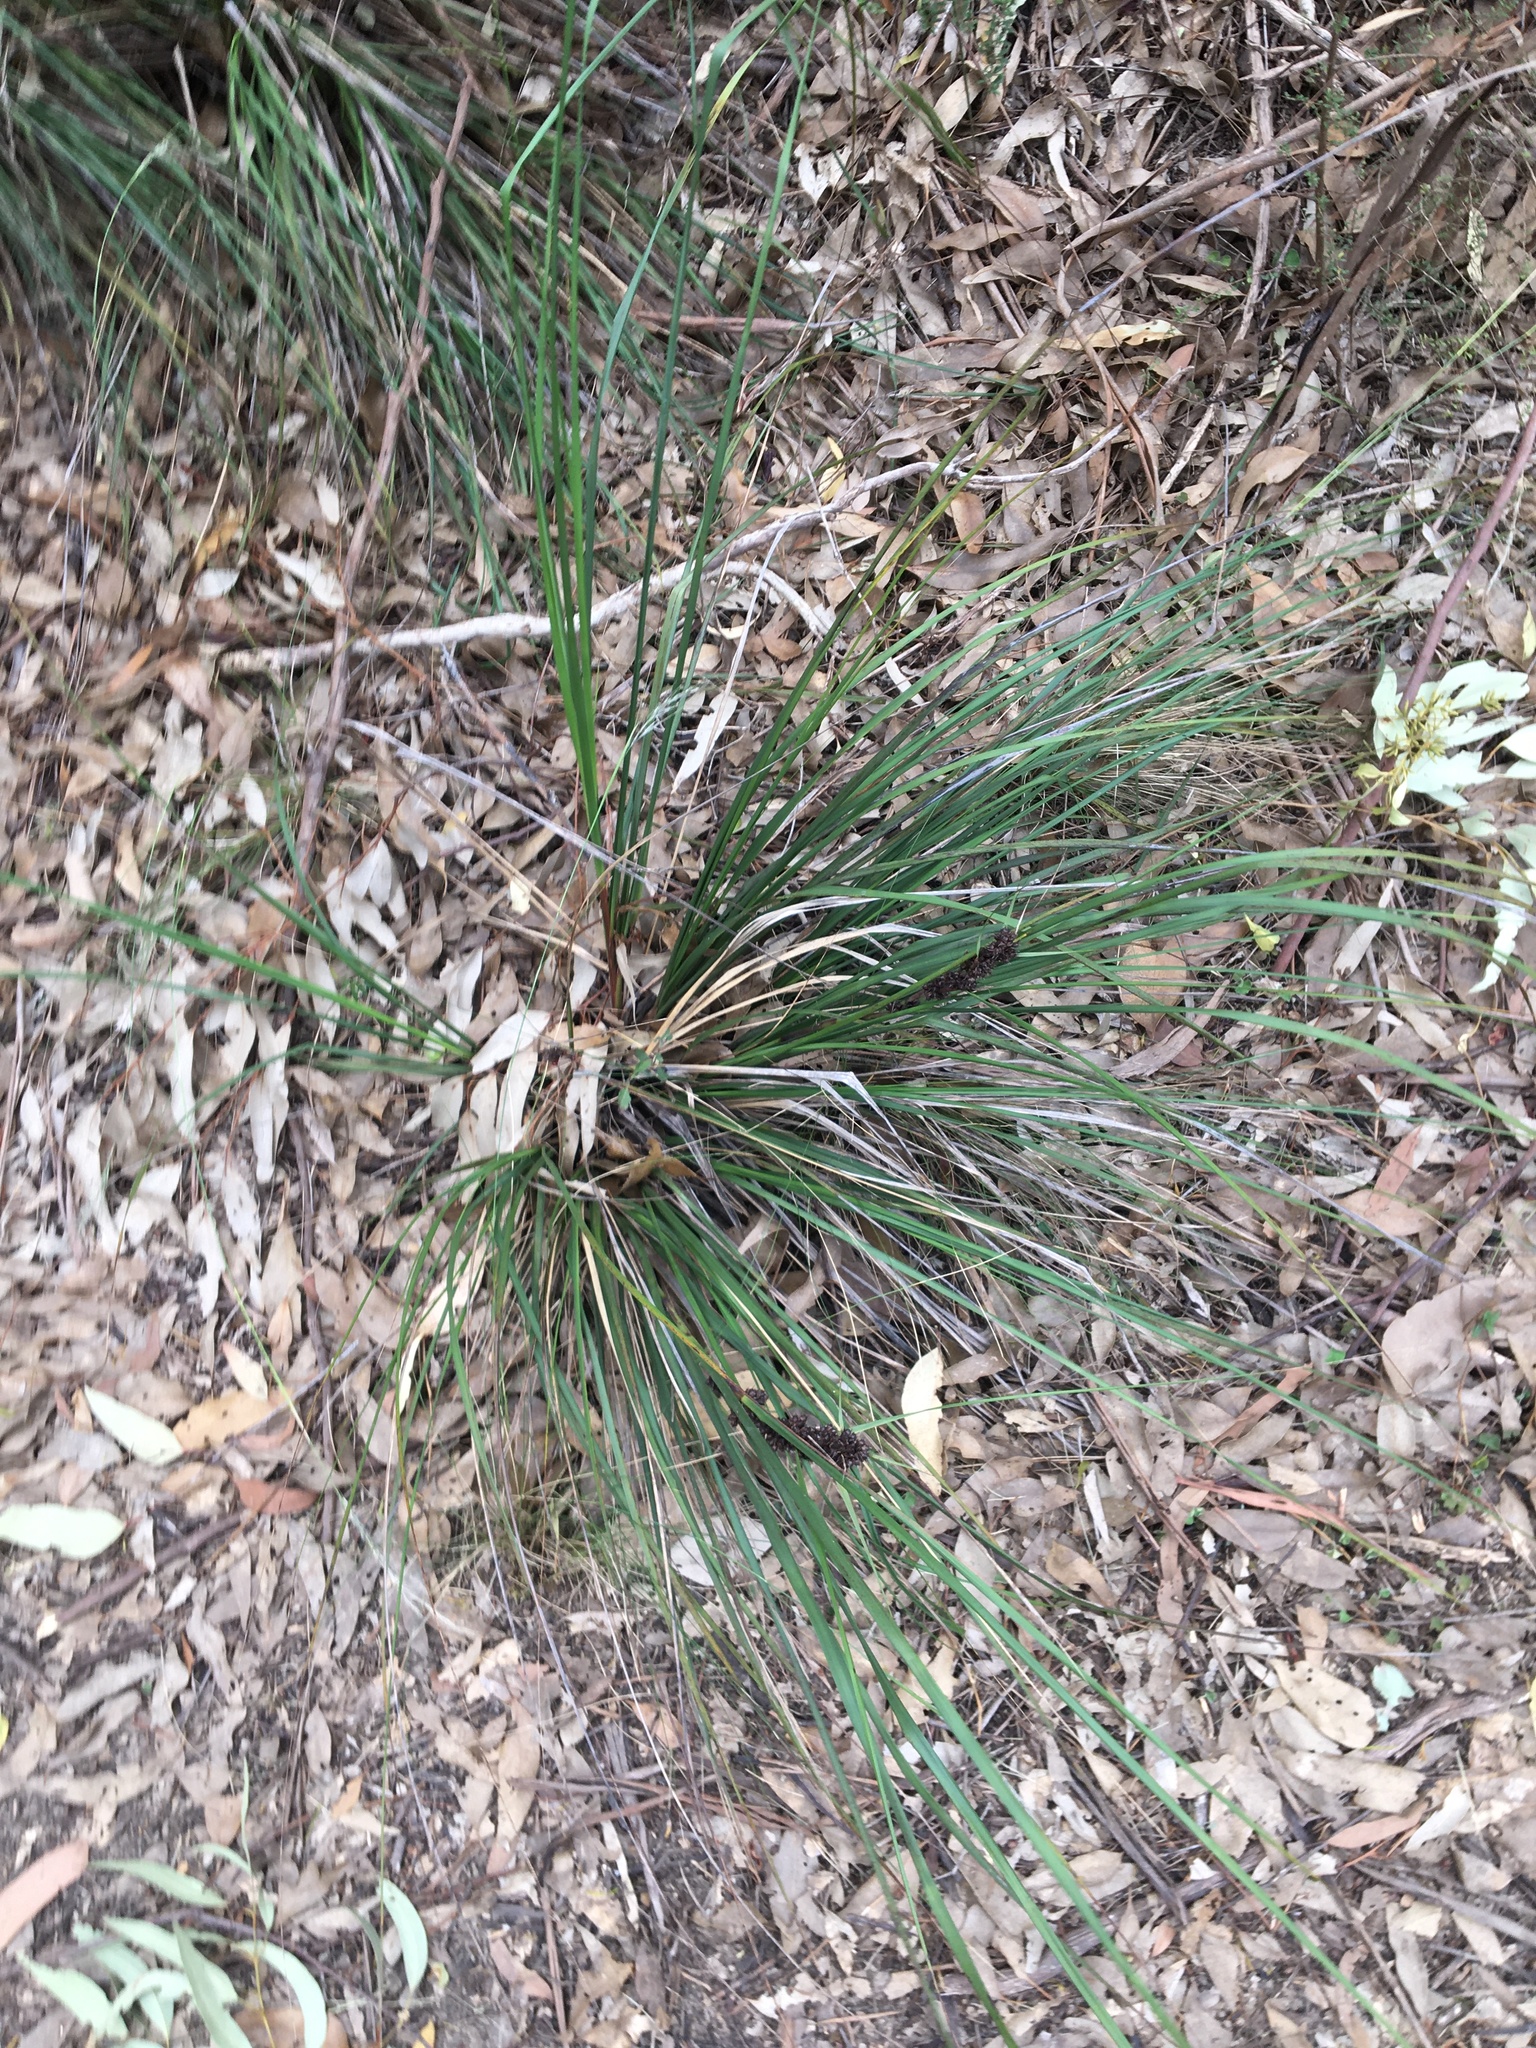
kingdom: Plantae
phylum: Tracheophyta
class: Liliopsida
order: Poales
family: Cyperaceae
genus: Gahnia
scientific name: Gahnia aspera
